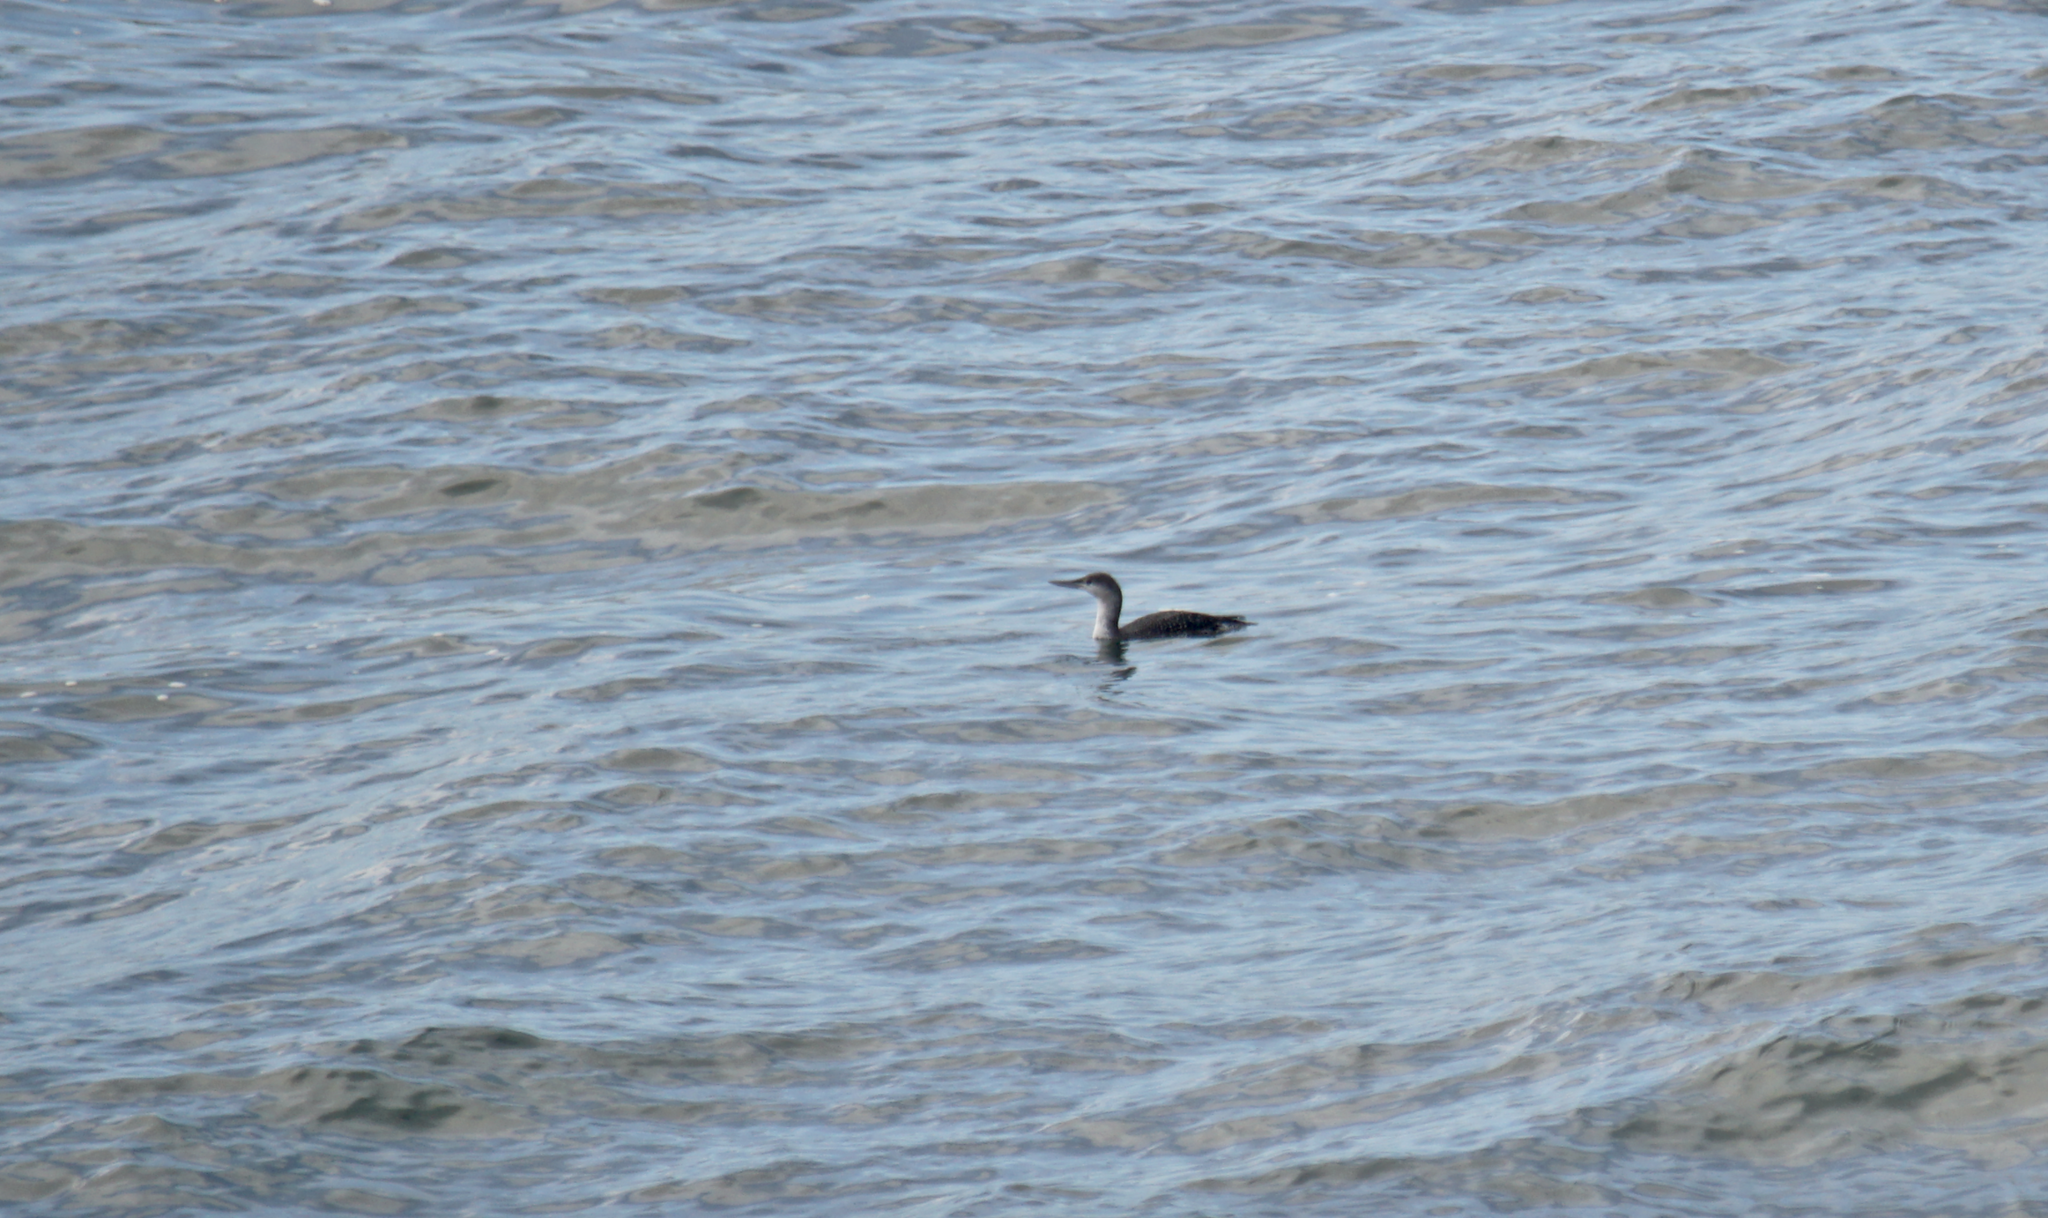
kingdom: Animalia
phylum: Chordata
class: Aves
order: Gaviiformes
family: Gaviidae
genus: Gavia
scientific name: Gavia stellata
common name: Red-throated loon
